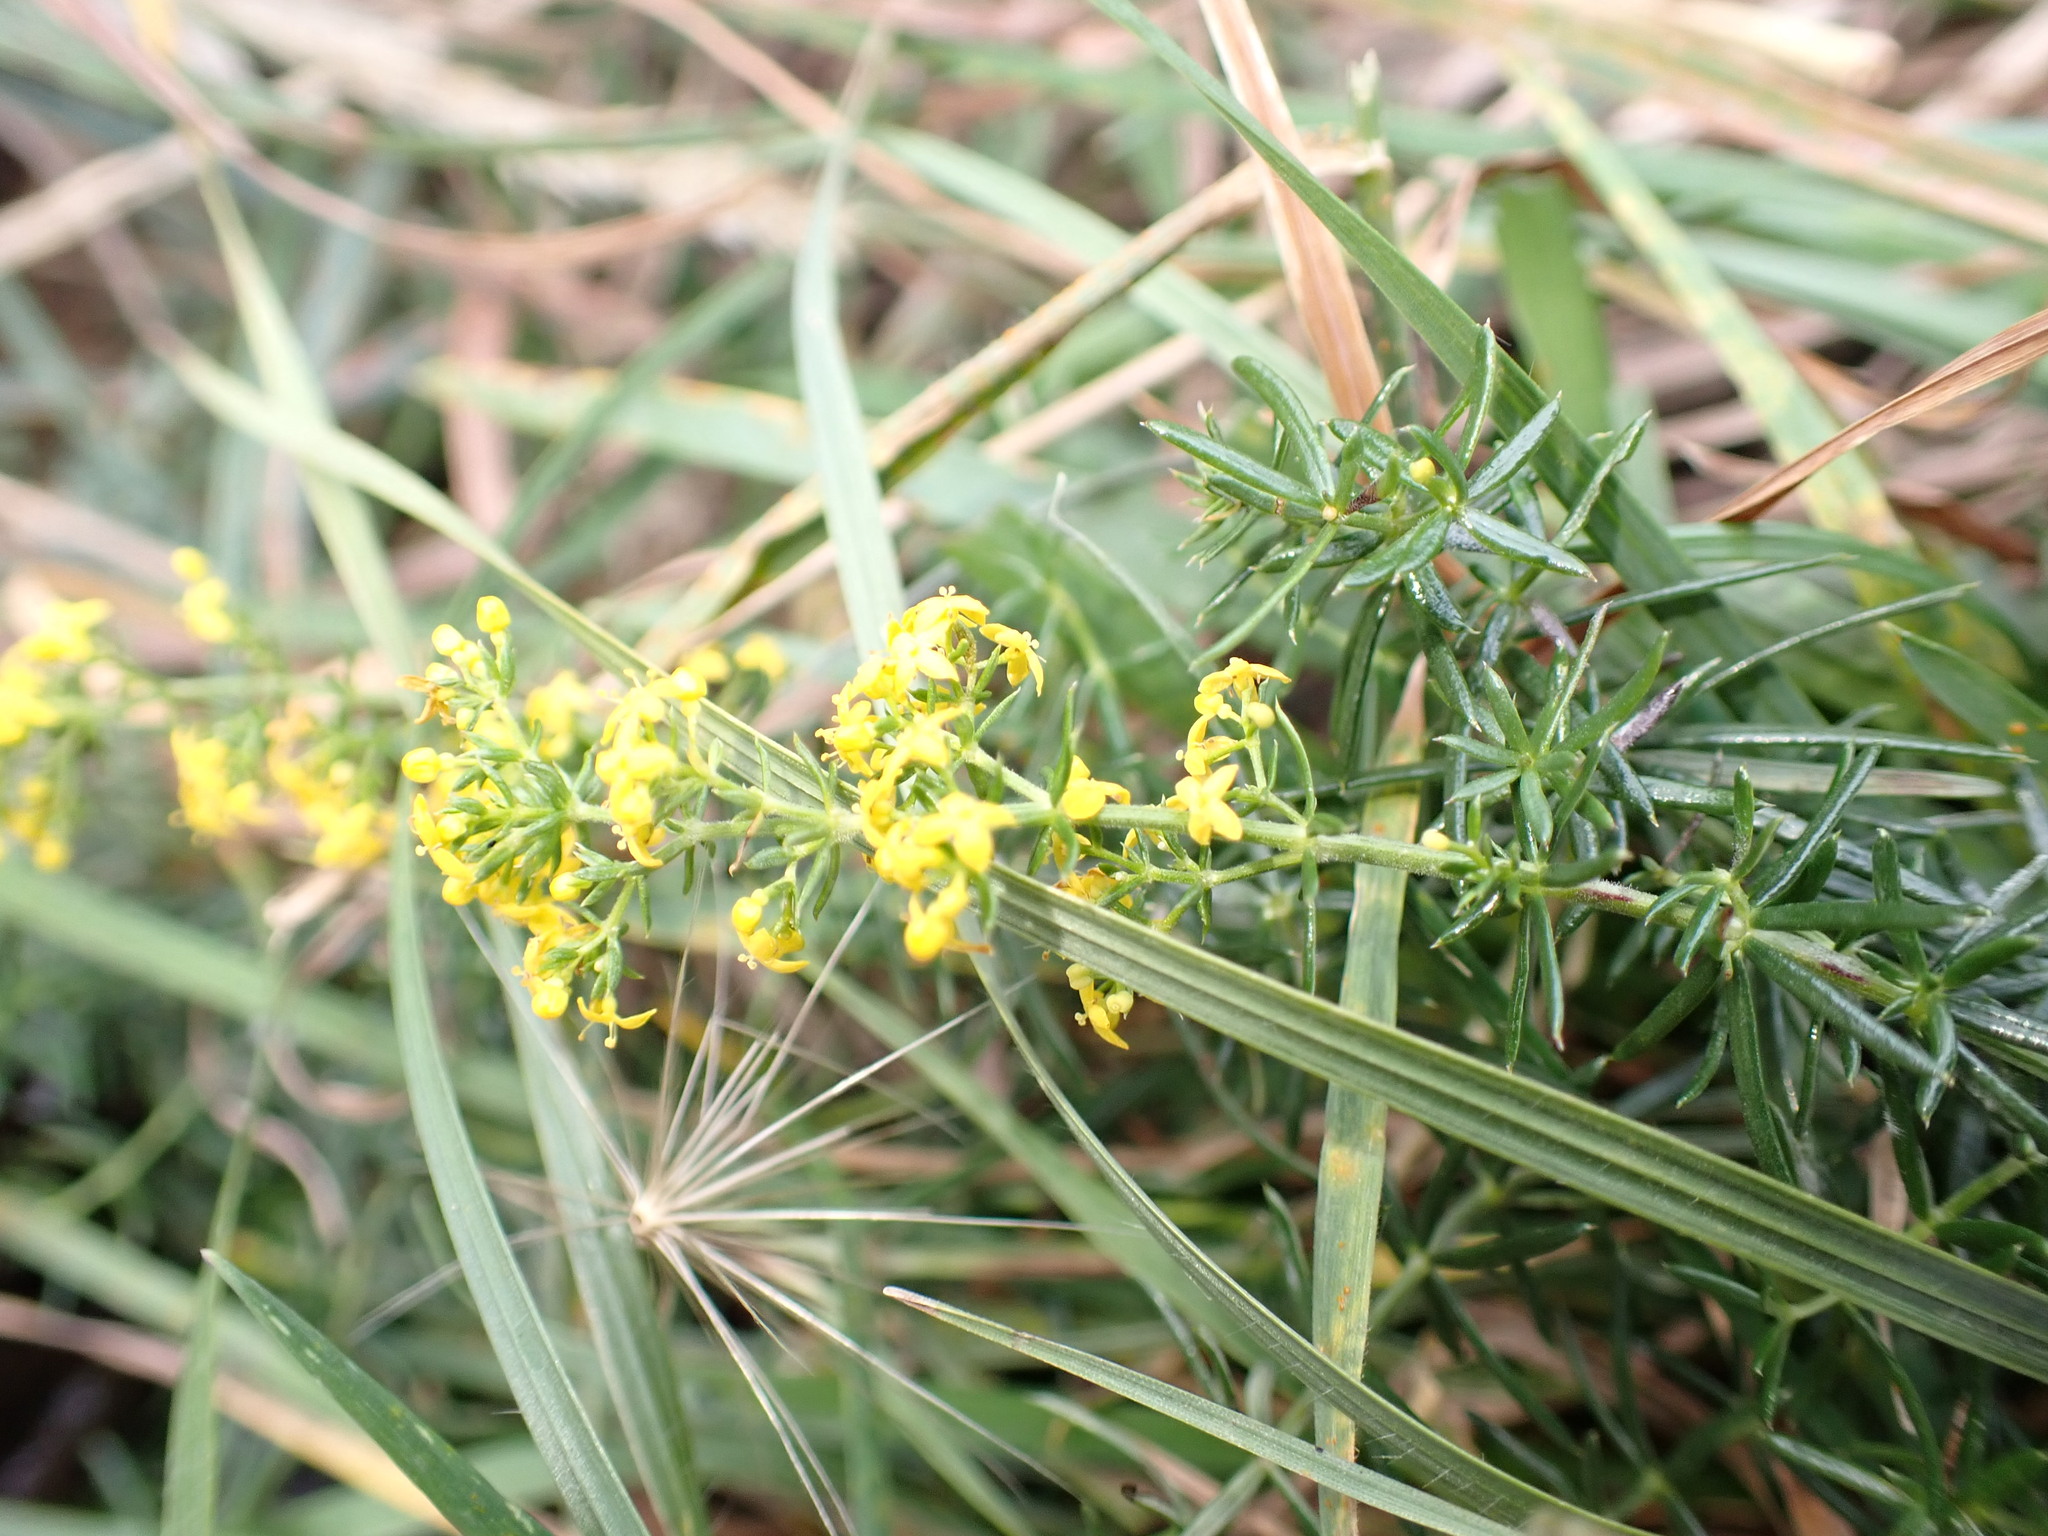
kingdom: Plantae
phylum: Tracheophyta
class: Magnoliopsida
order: Gentianales
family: Rubiaceae
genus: Galium
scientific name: Galium verum
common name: Lady's bedstraw
